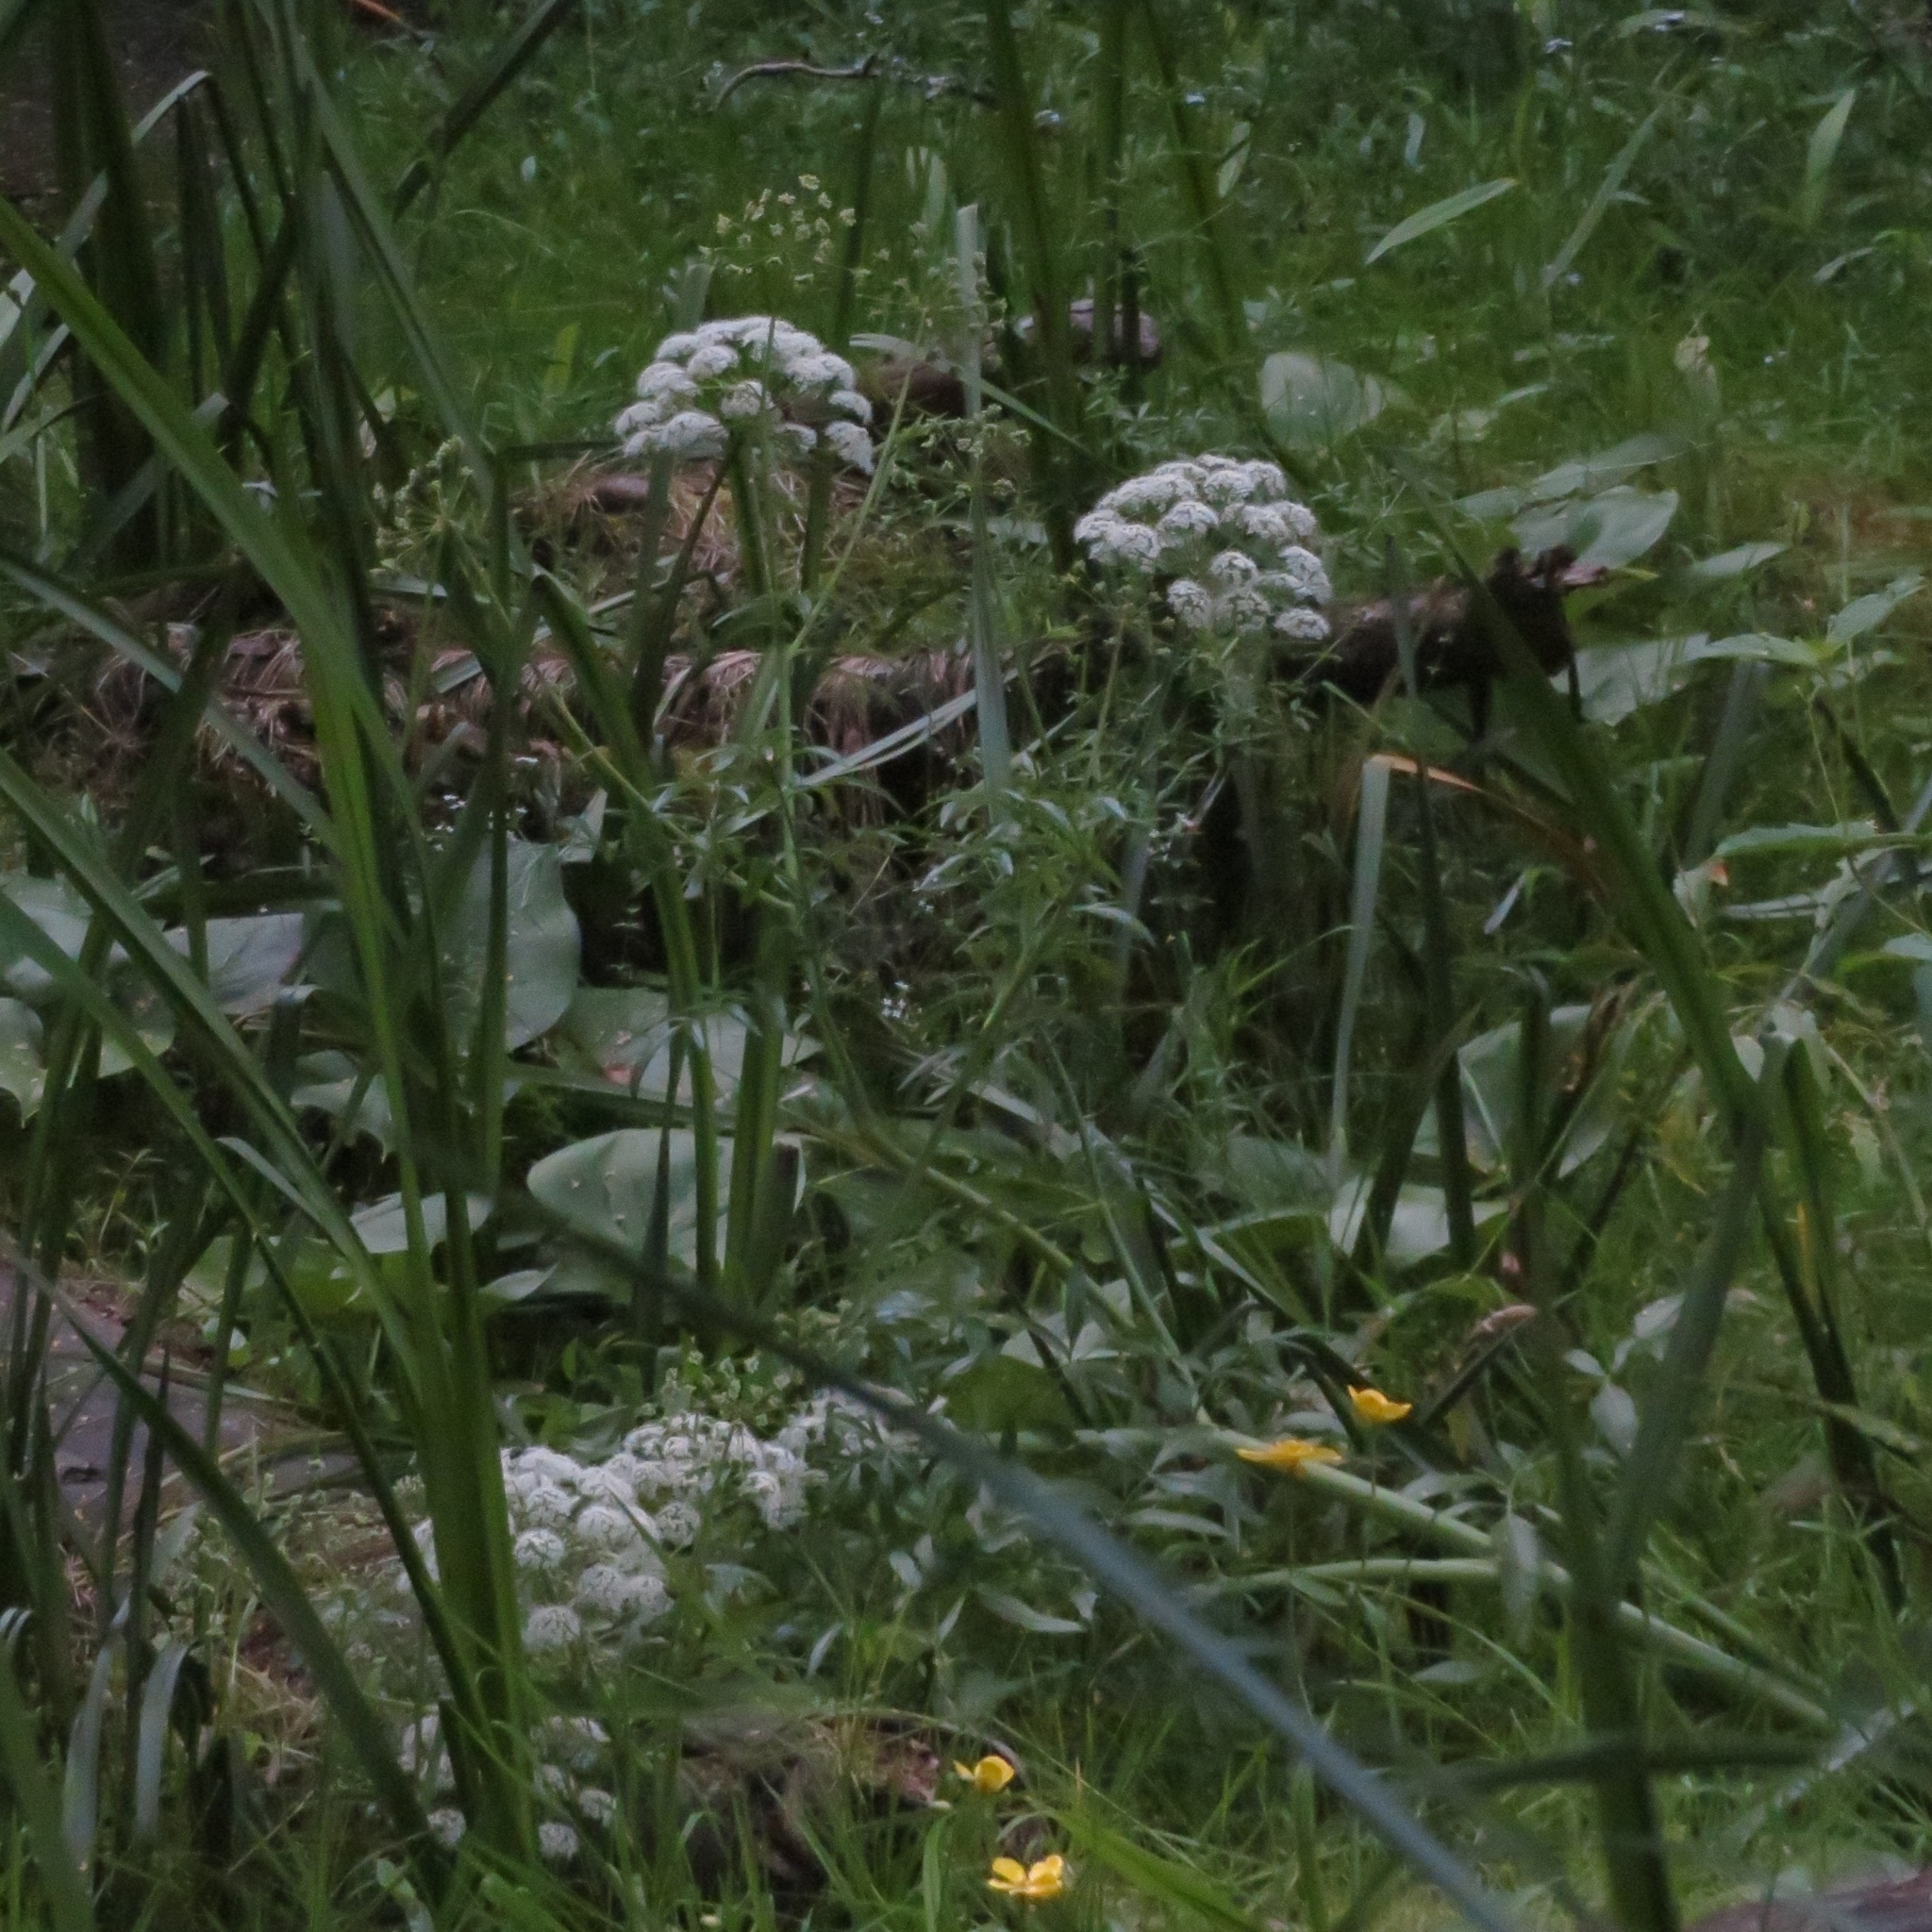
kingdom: Plantae
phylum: Tracheophyta
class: Magnoliopsida
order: Apiales
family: Apiaceae
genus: Cicuta
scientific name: Cicuta virosa
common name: Cowbane
